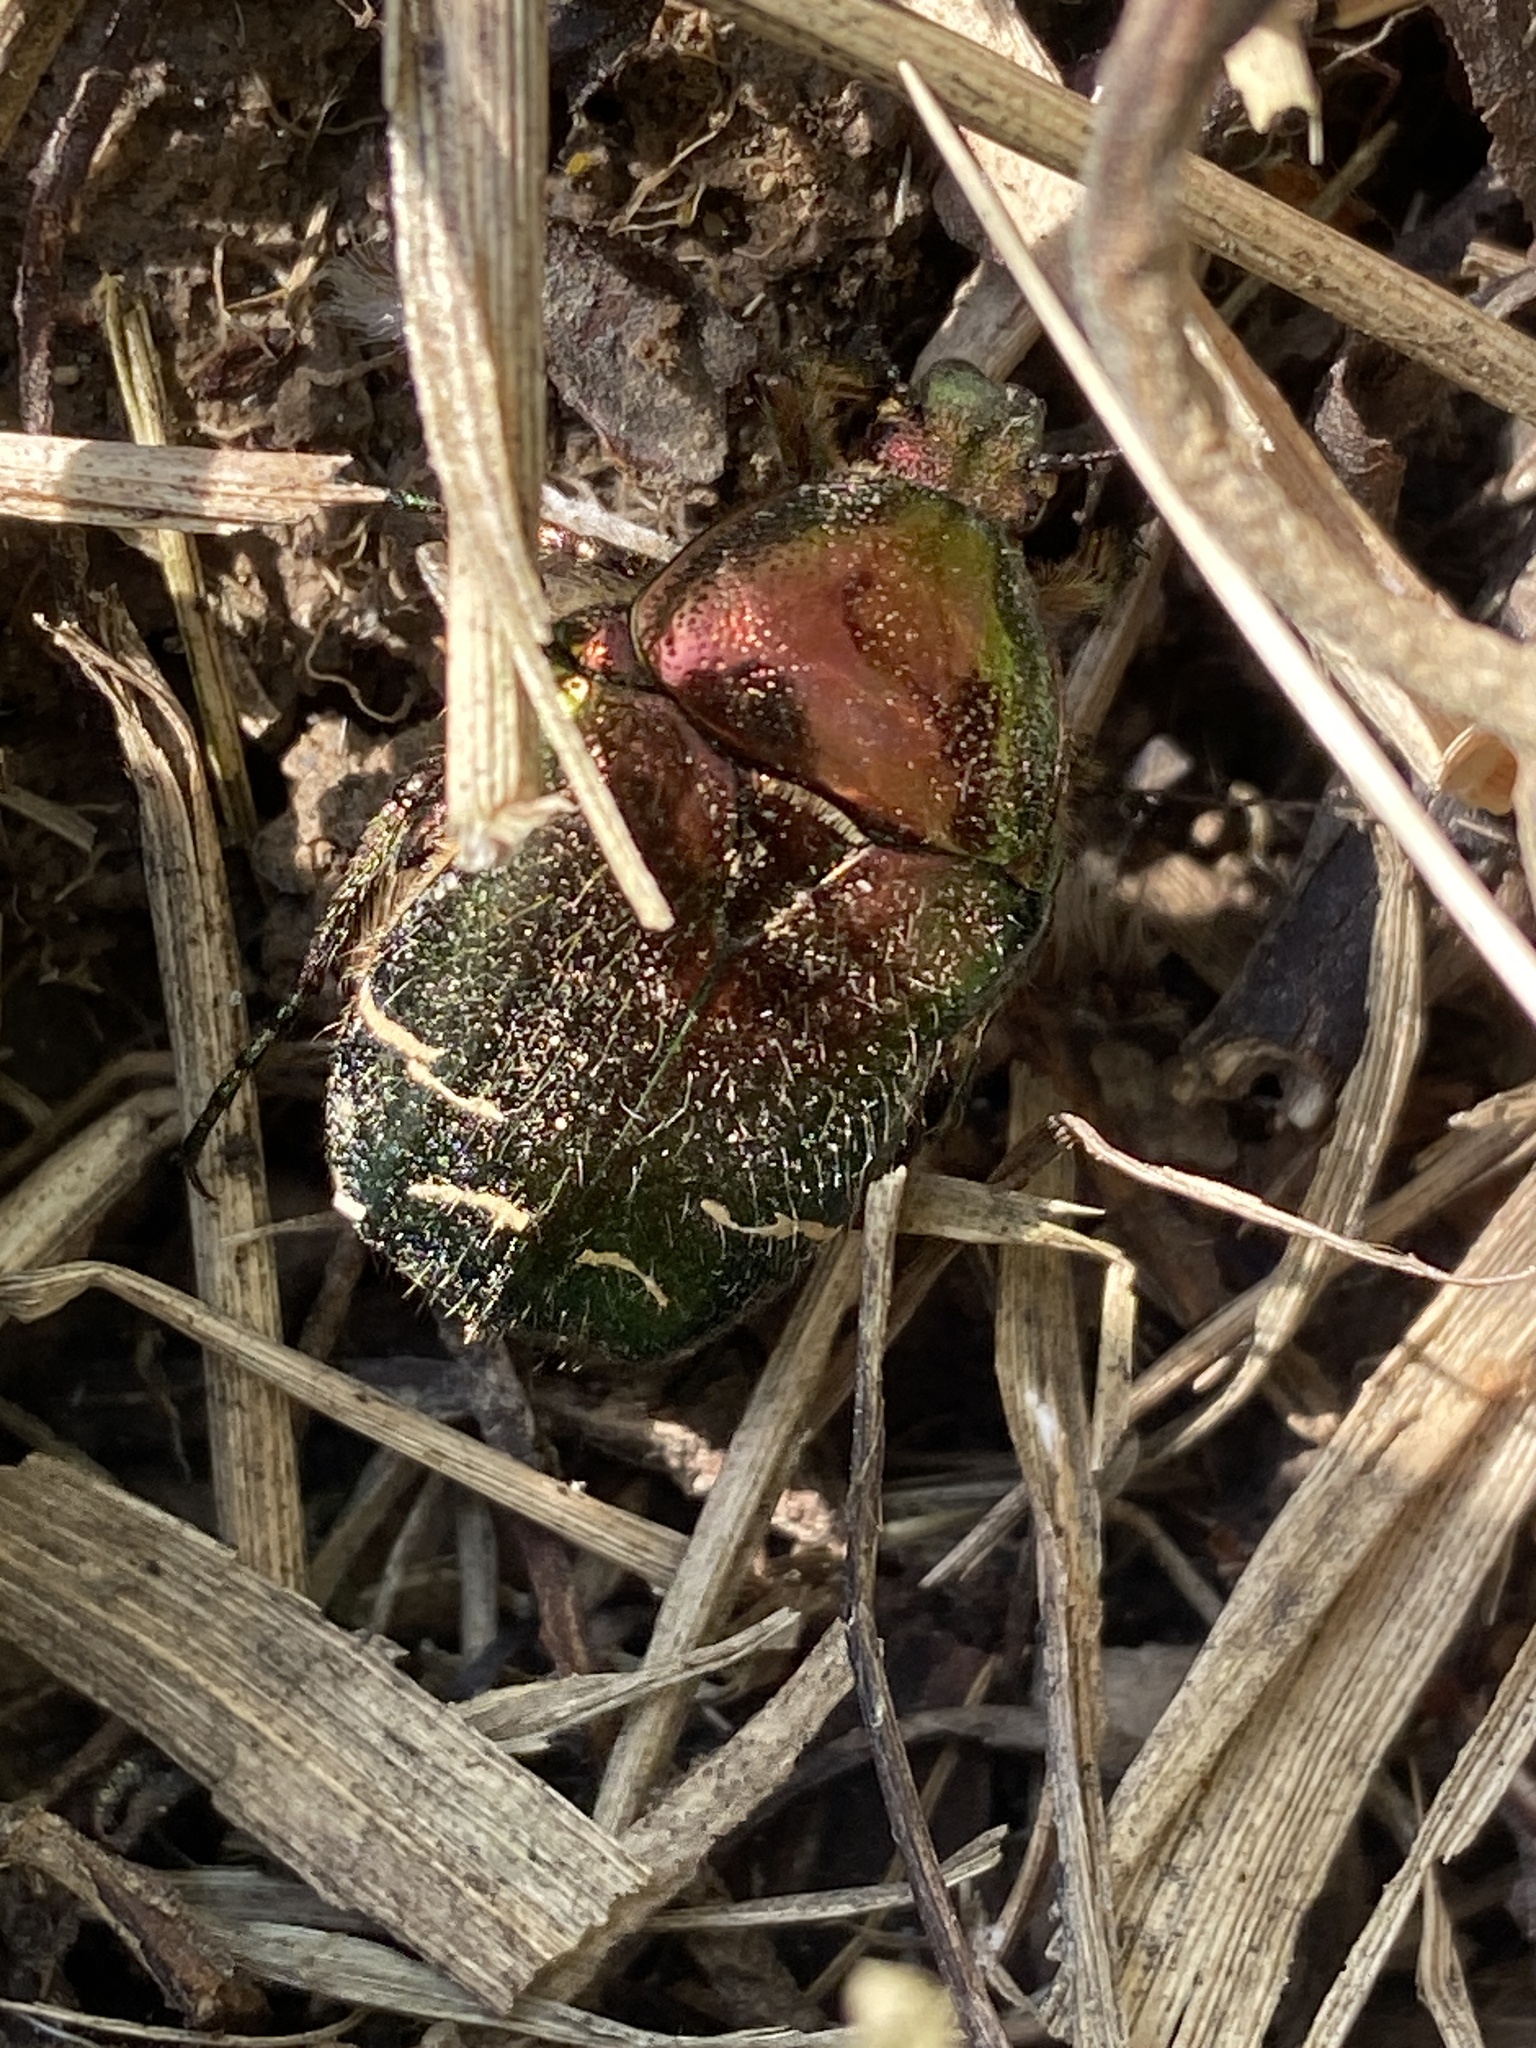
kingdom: Animalia
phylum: Arthropoda
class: Insecta
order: Coleoptera
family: Scarabaeidae
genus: Cetonia
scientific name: Cetonia aurata
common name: Rose chafer
